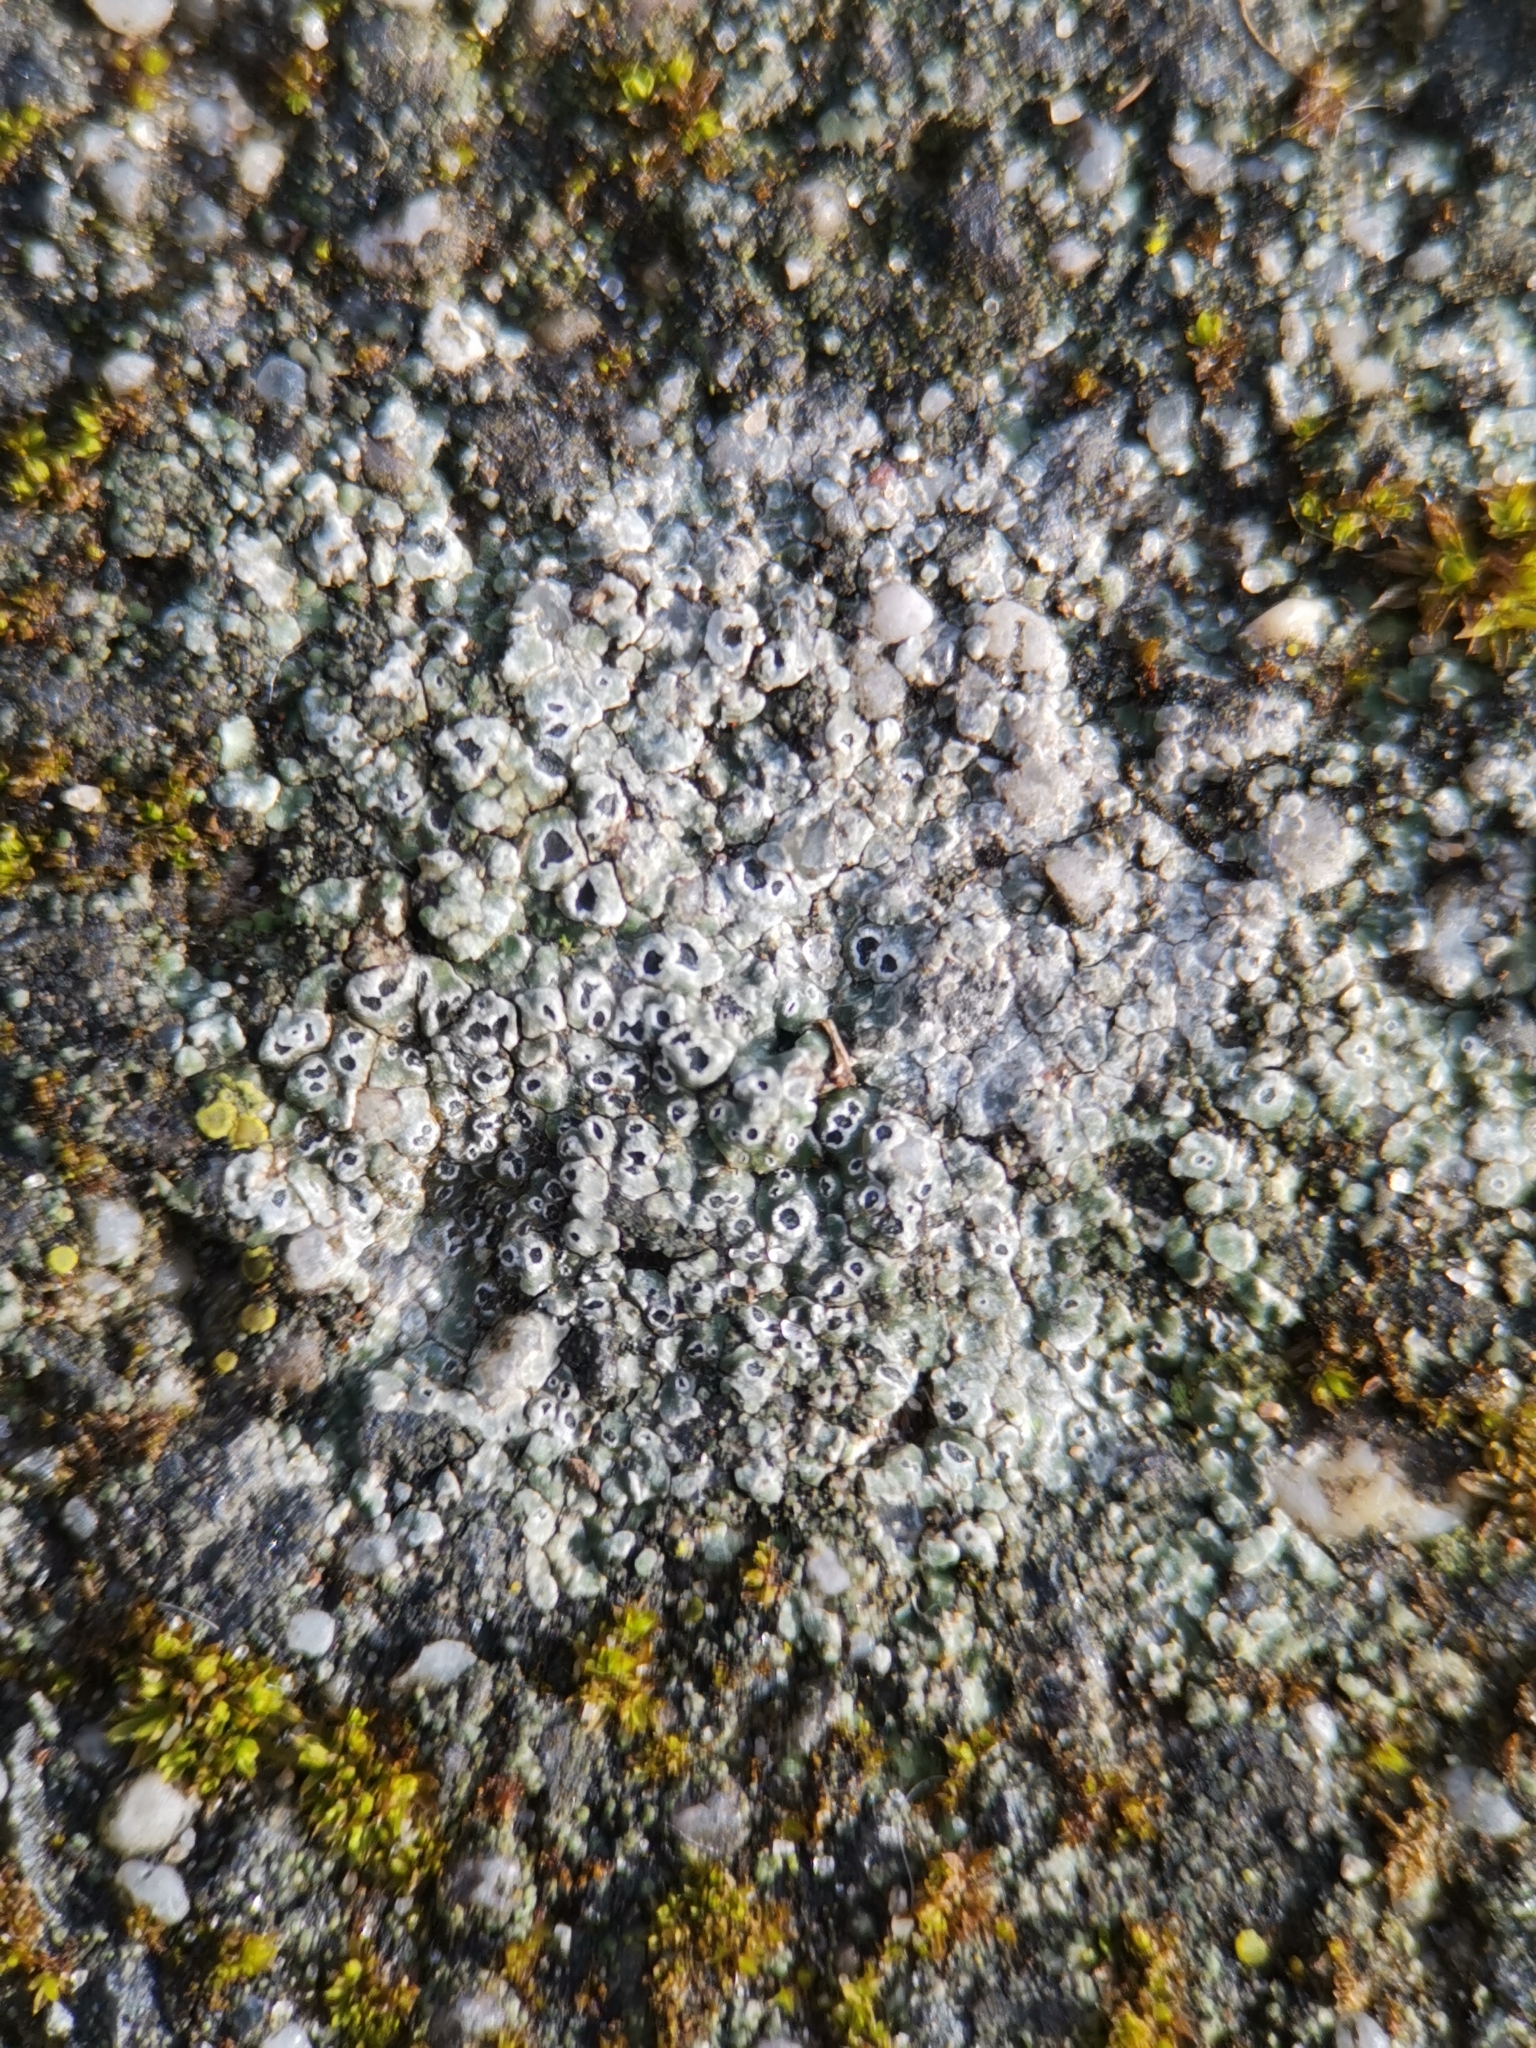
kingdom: Fungi
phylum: Ascomycota
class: Lecanoromycetes
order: Pertusariales
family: Megasporaceae
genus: Circinaria
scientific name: Circinaria contorta
